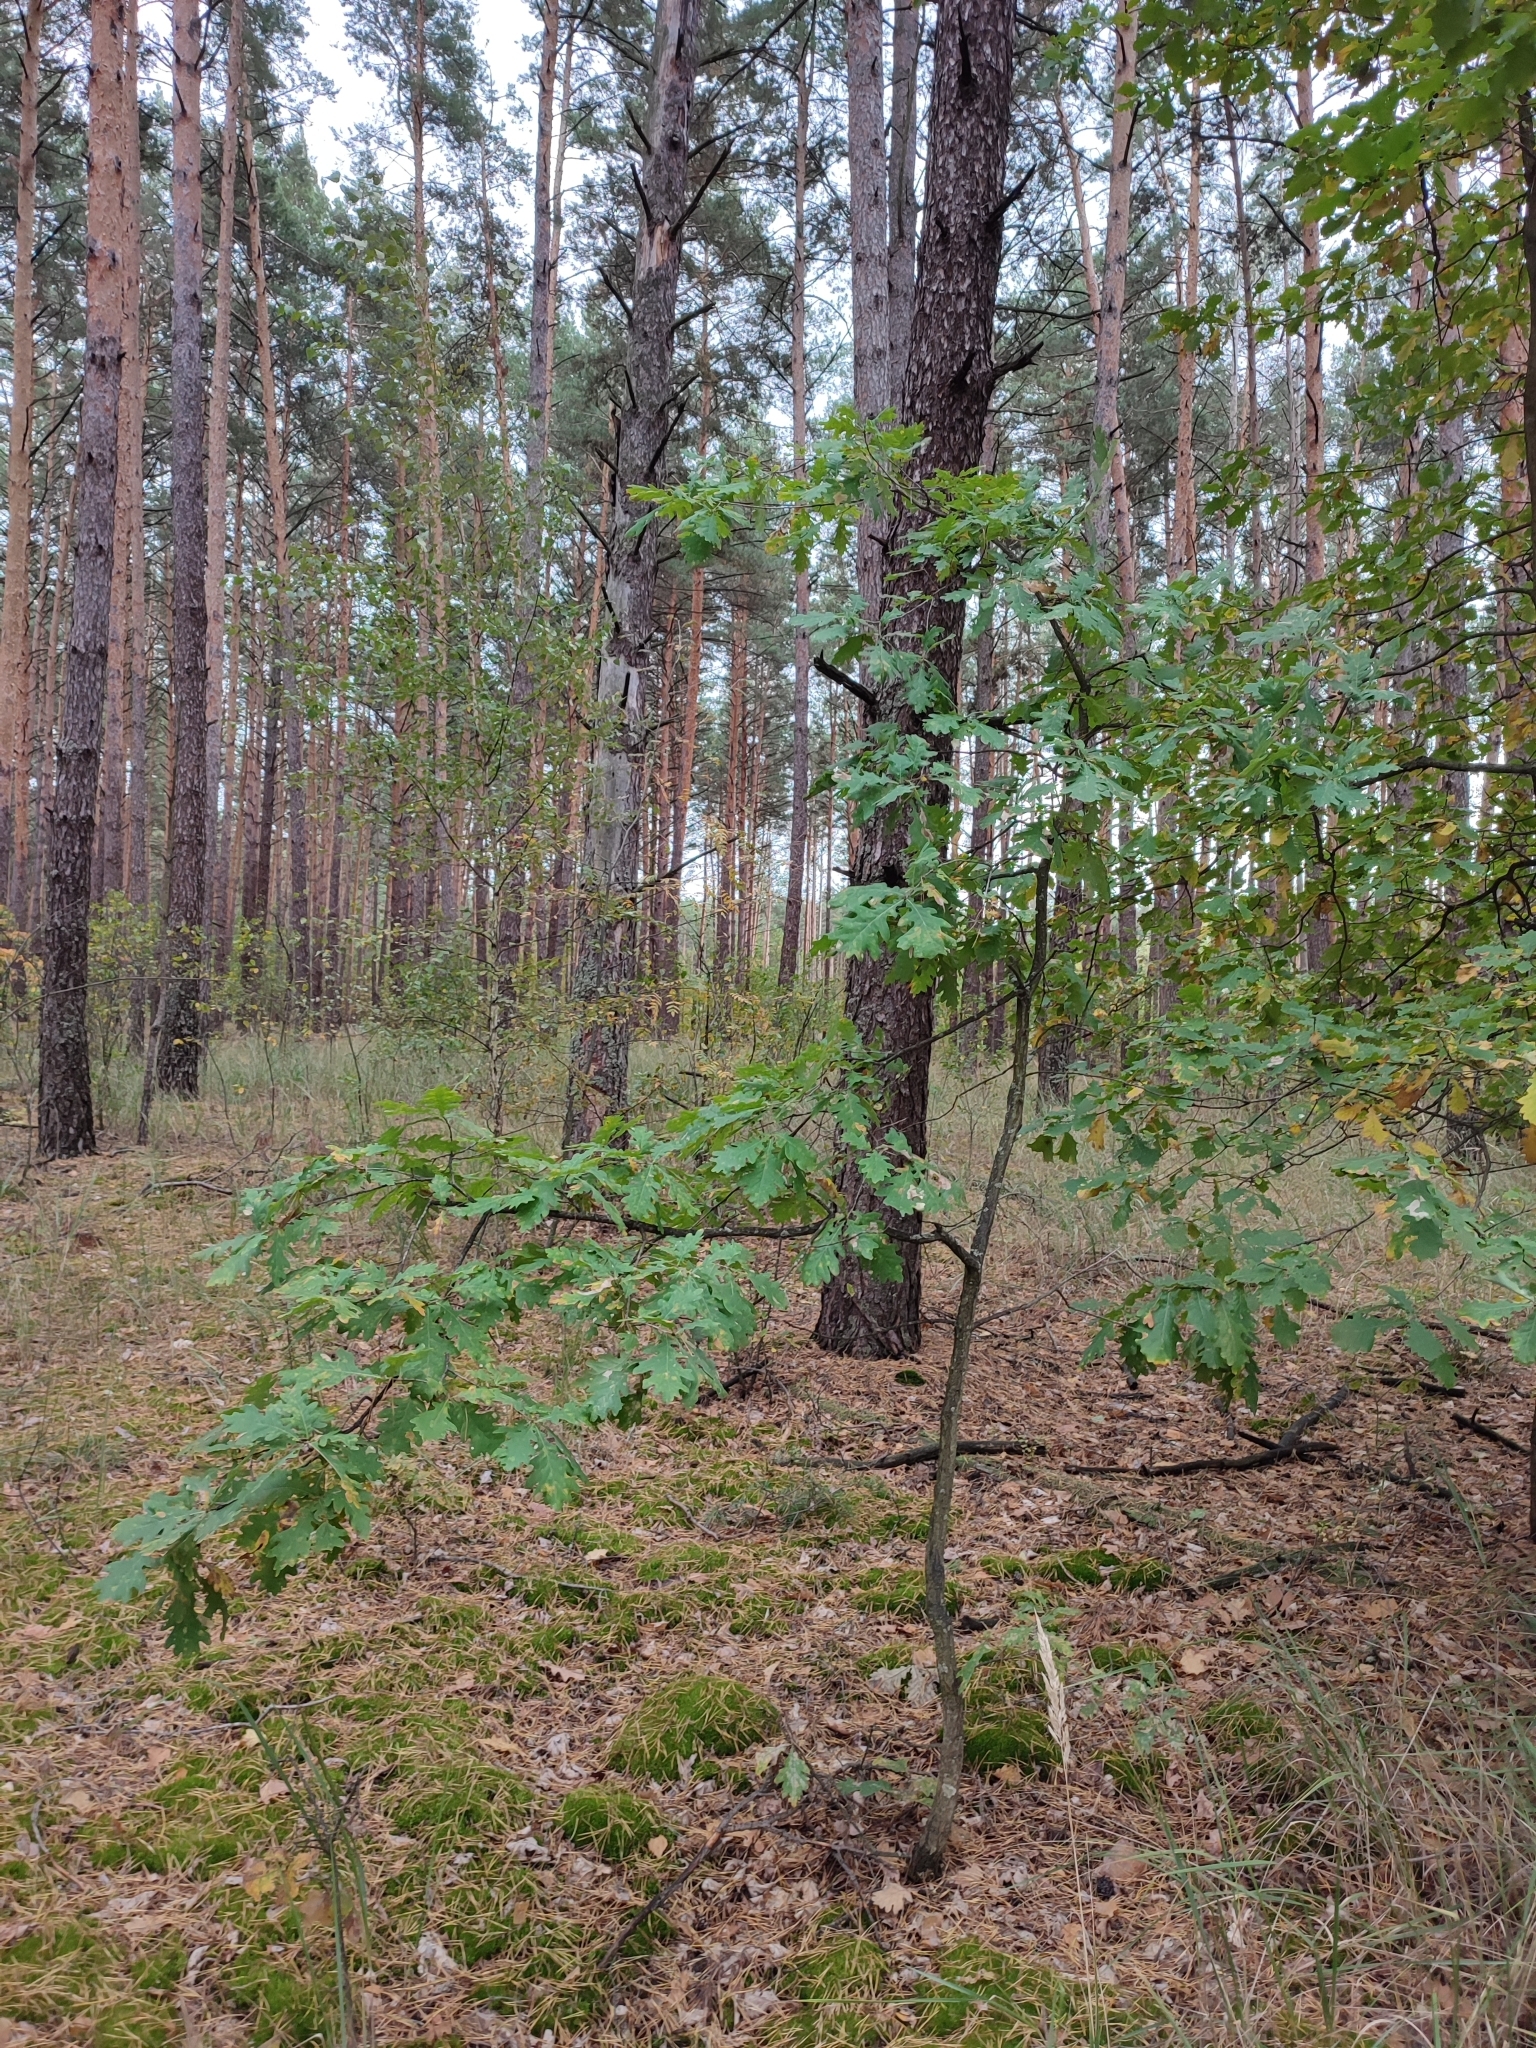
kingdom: Plantae
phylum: Tracheophyta
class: Magnoliopsida
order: Fagales
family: Fagaceae
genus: Quercus
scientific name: Quercus robur
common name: Pedunculate oak
